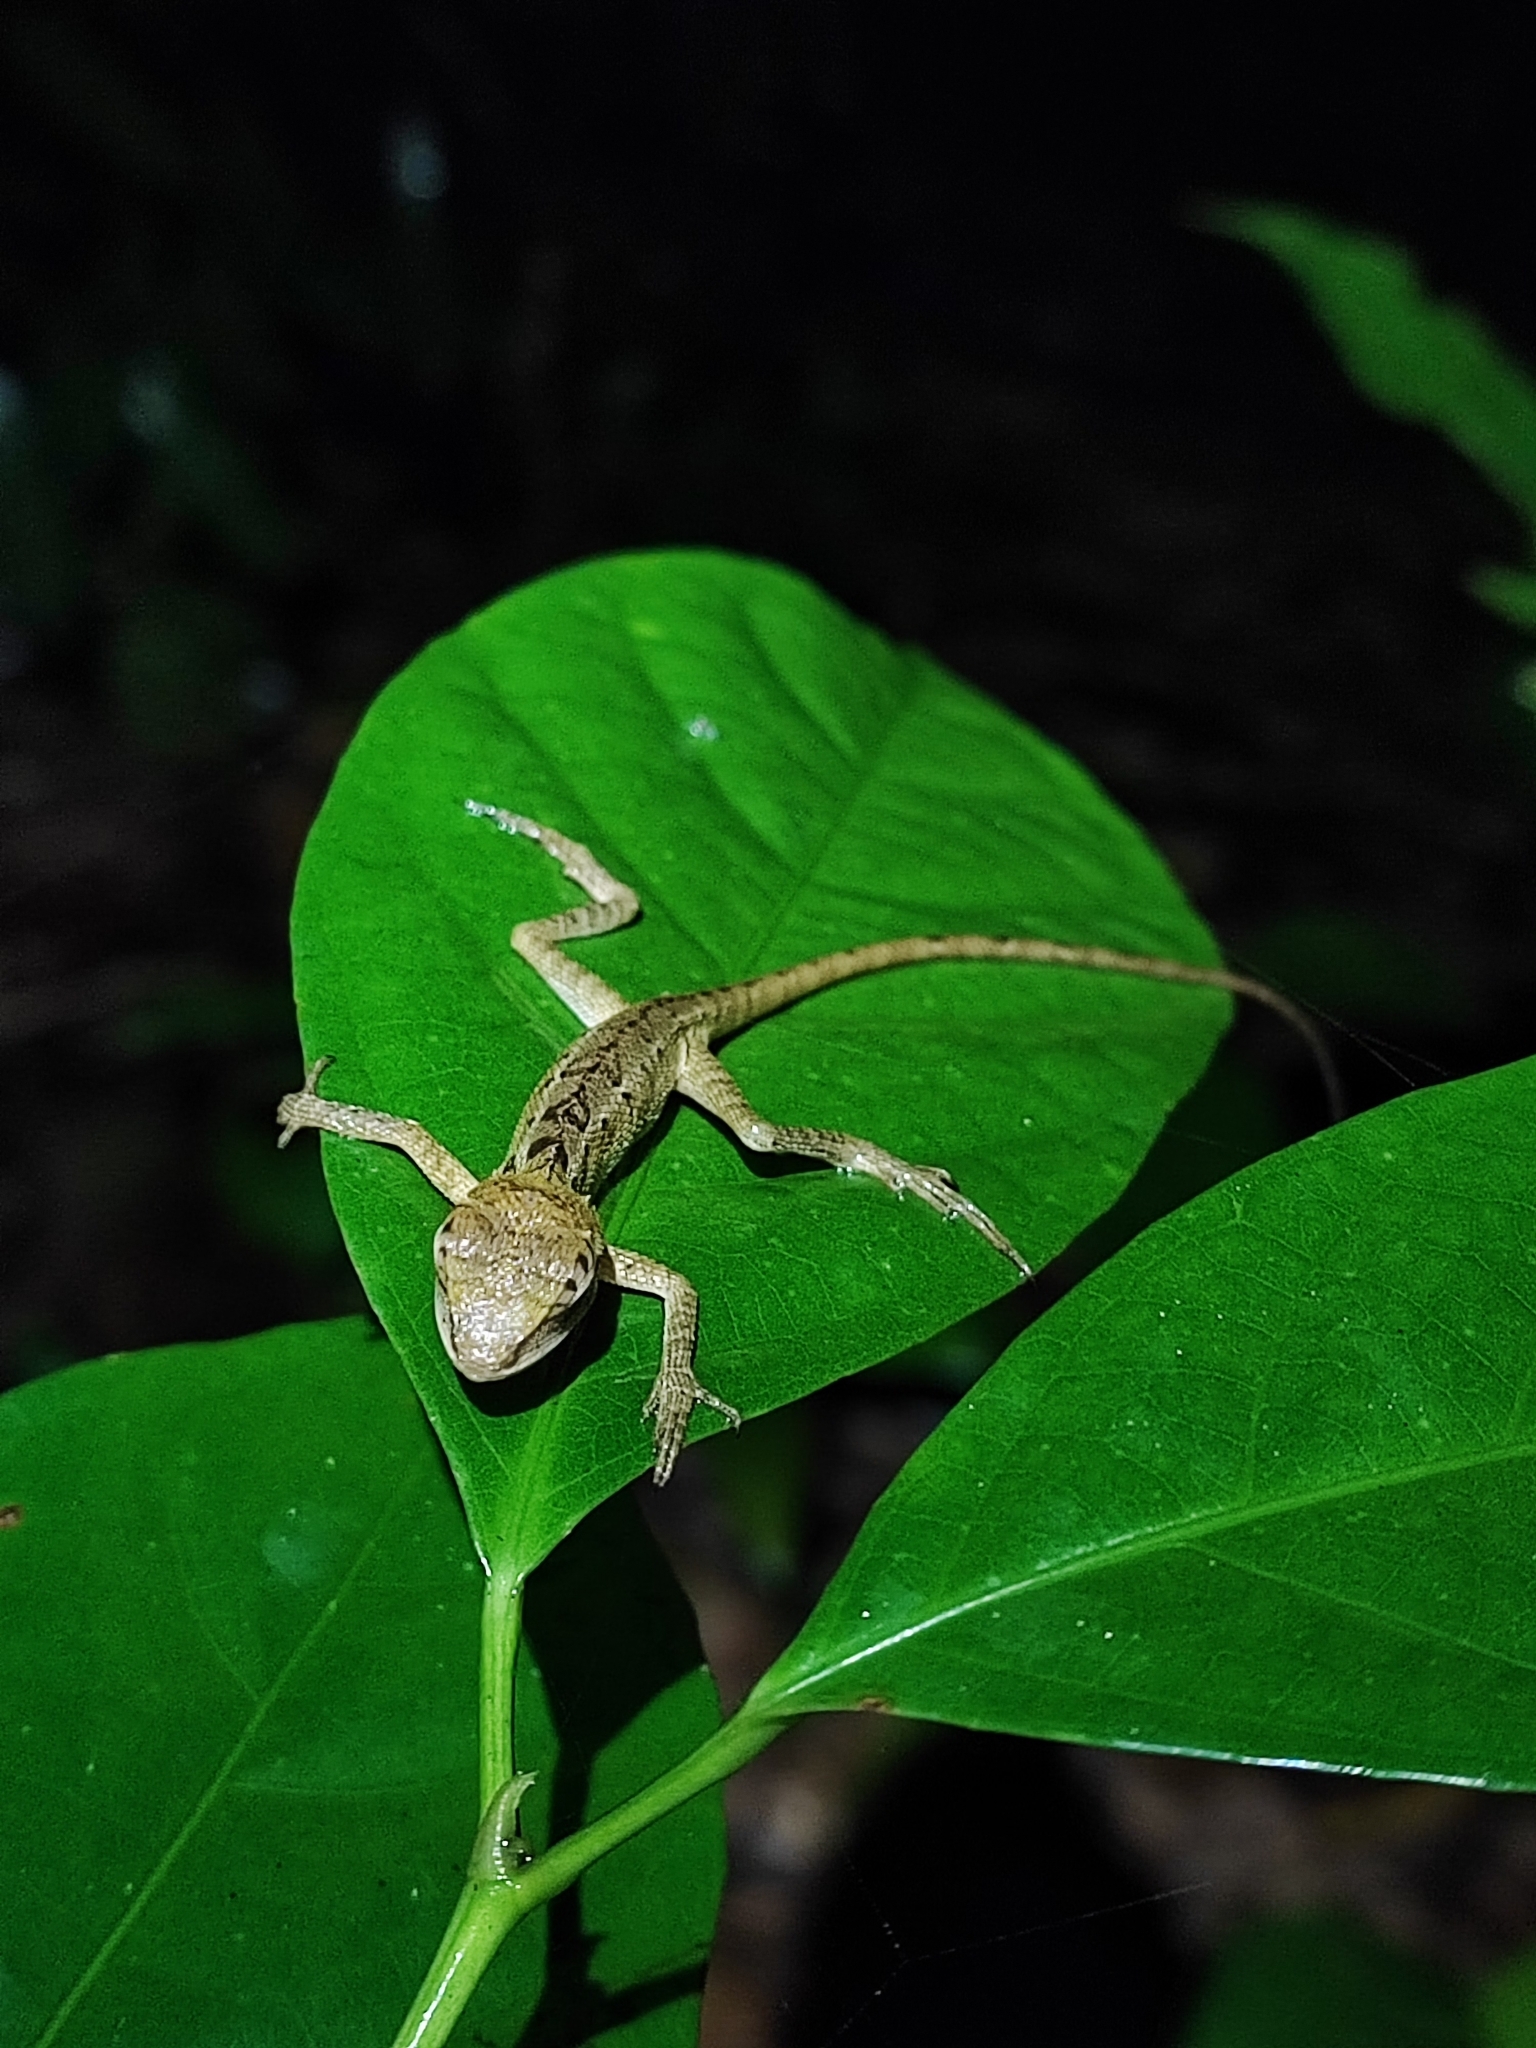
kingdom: Animalia
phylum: Chordata
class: Squamata
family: Agamidae
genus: Calotes
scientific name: Calotes emma
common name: Thailand bloodsucker
